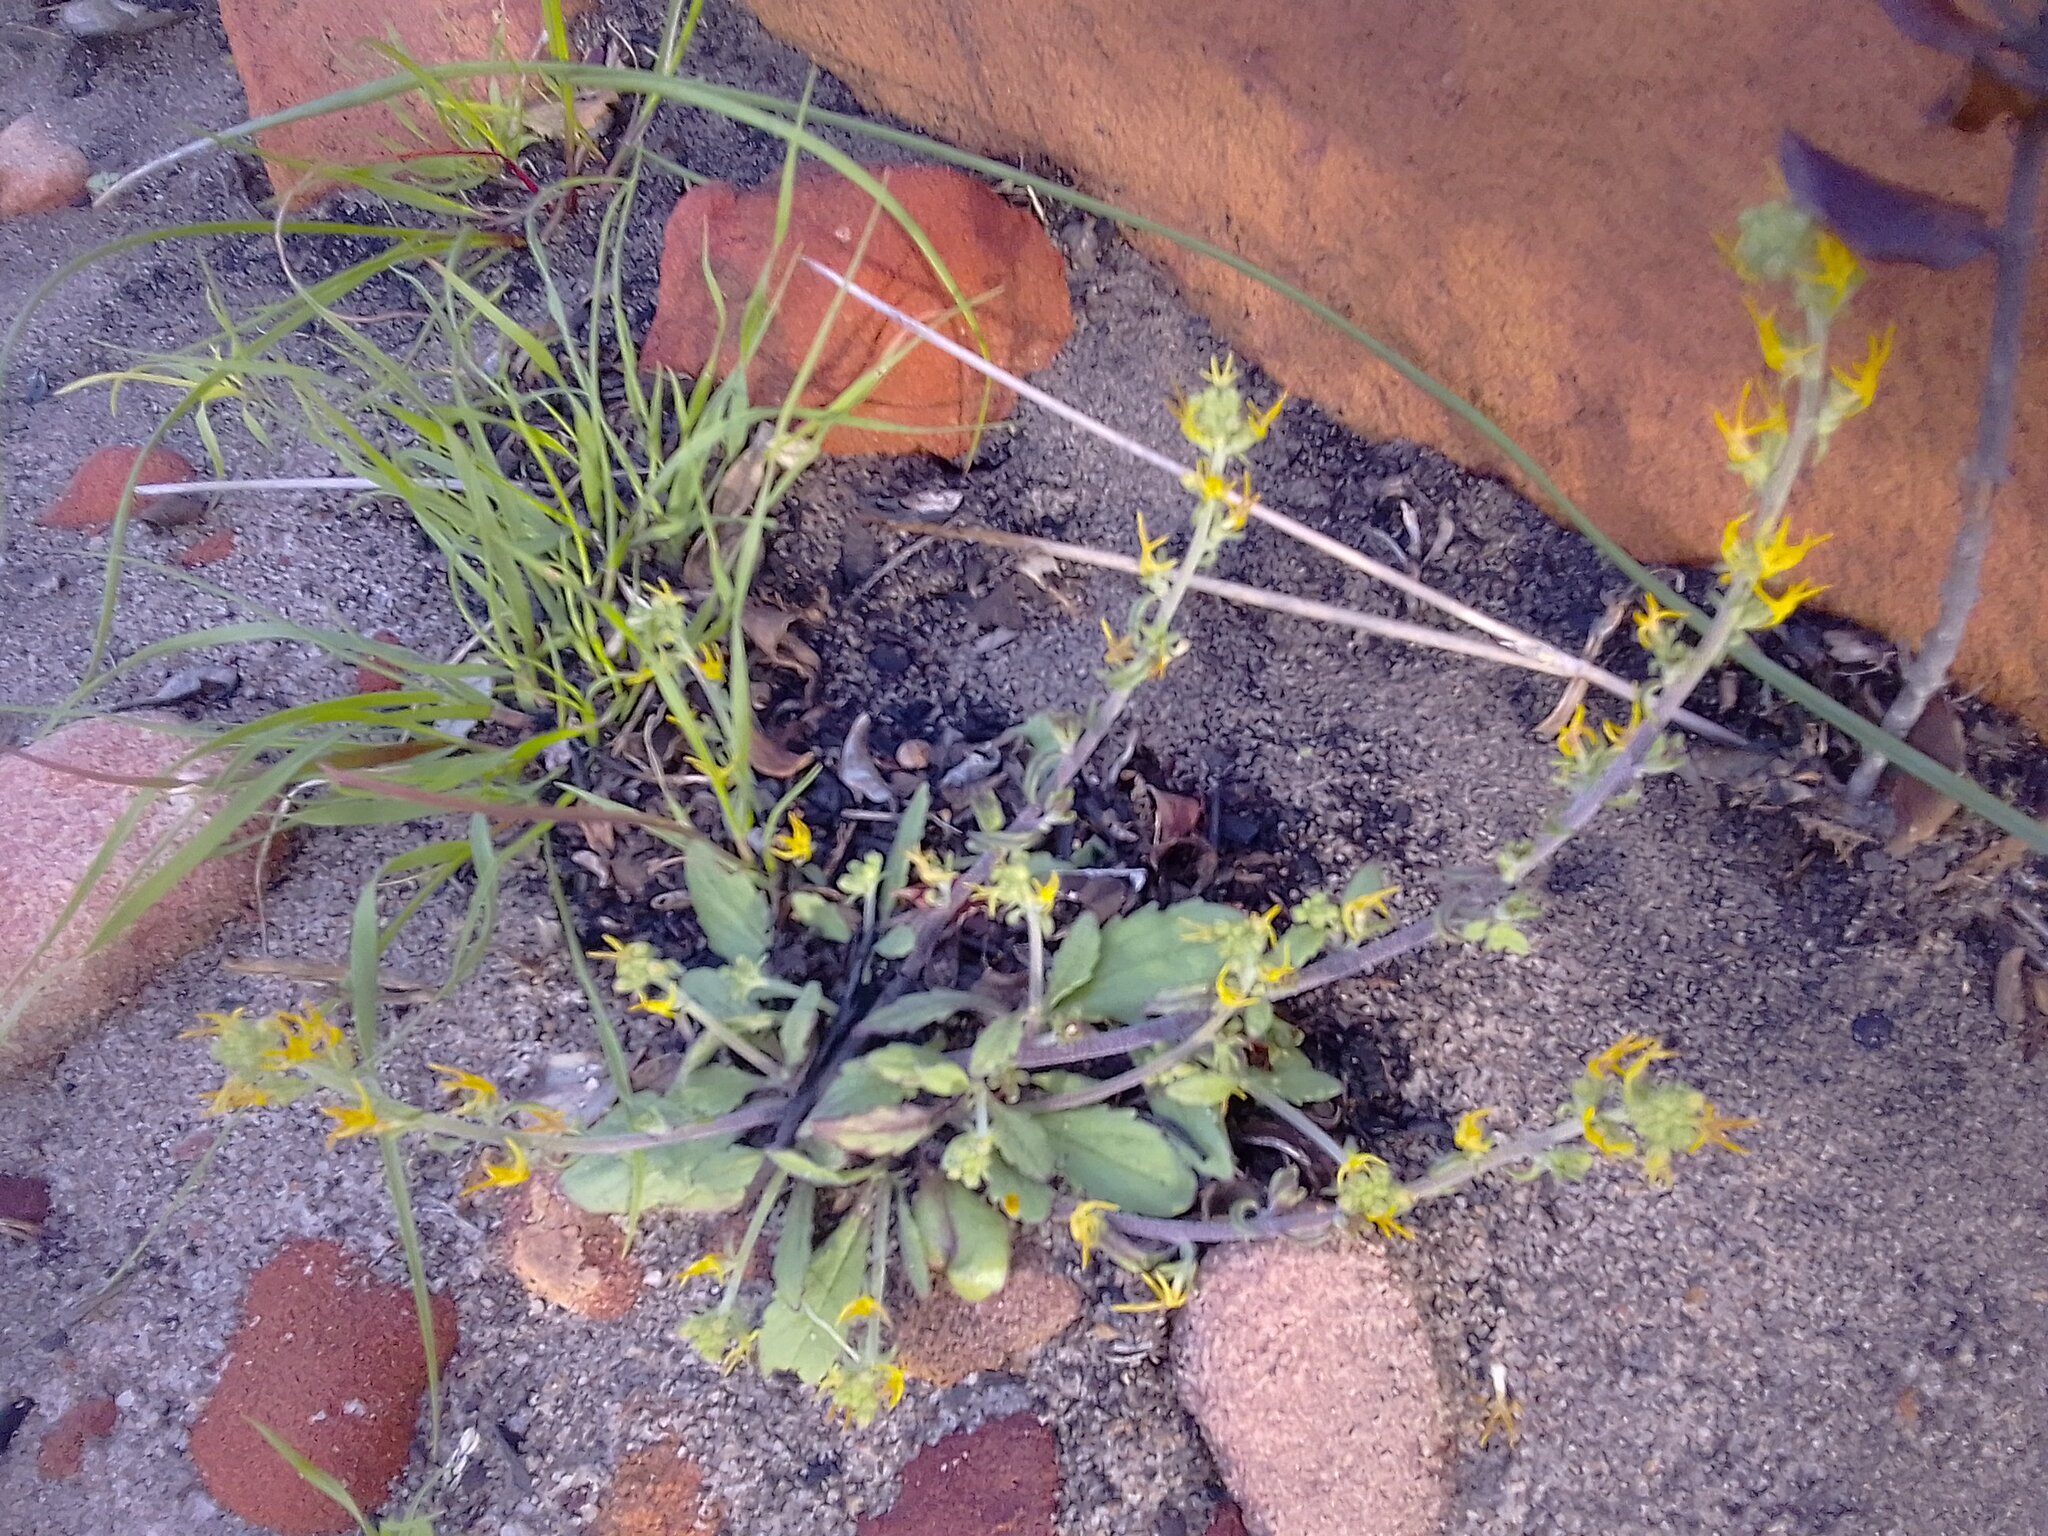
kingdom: Plantae
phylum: Tracheophyta
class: Magnoliopsida
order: Lamiales
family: Scrophulariaceae
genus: Manulea
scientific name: Manulea cheiranthus
